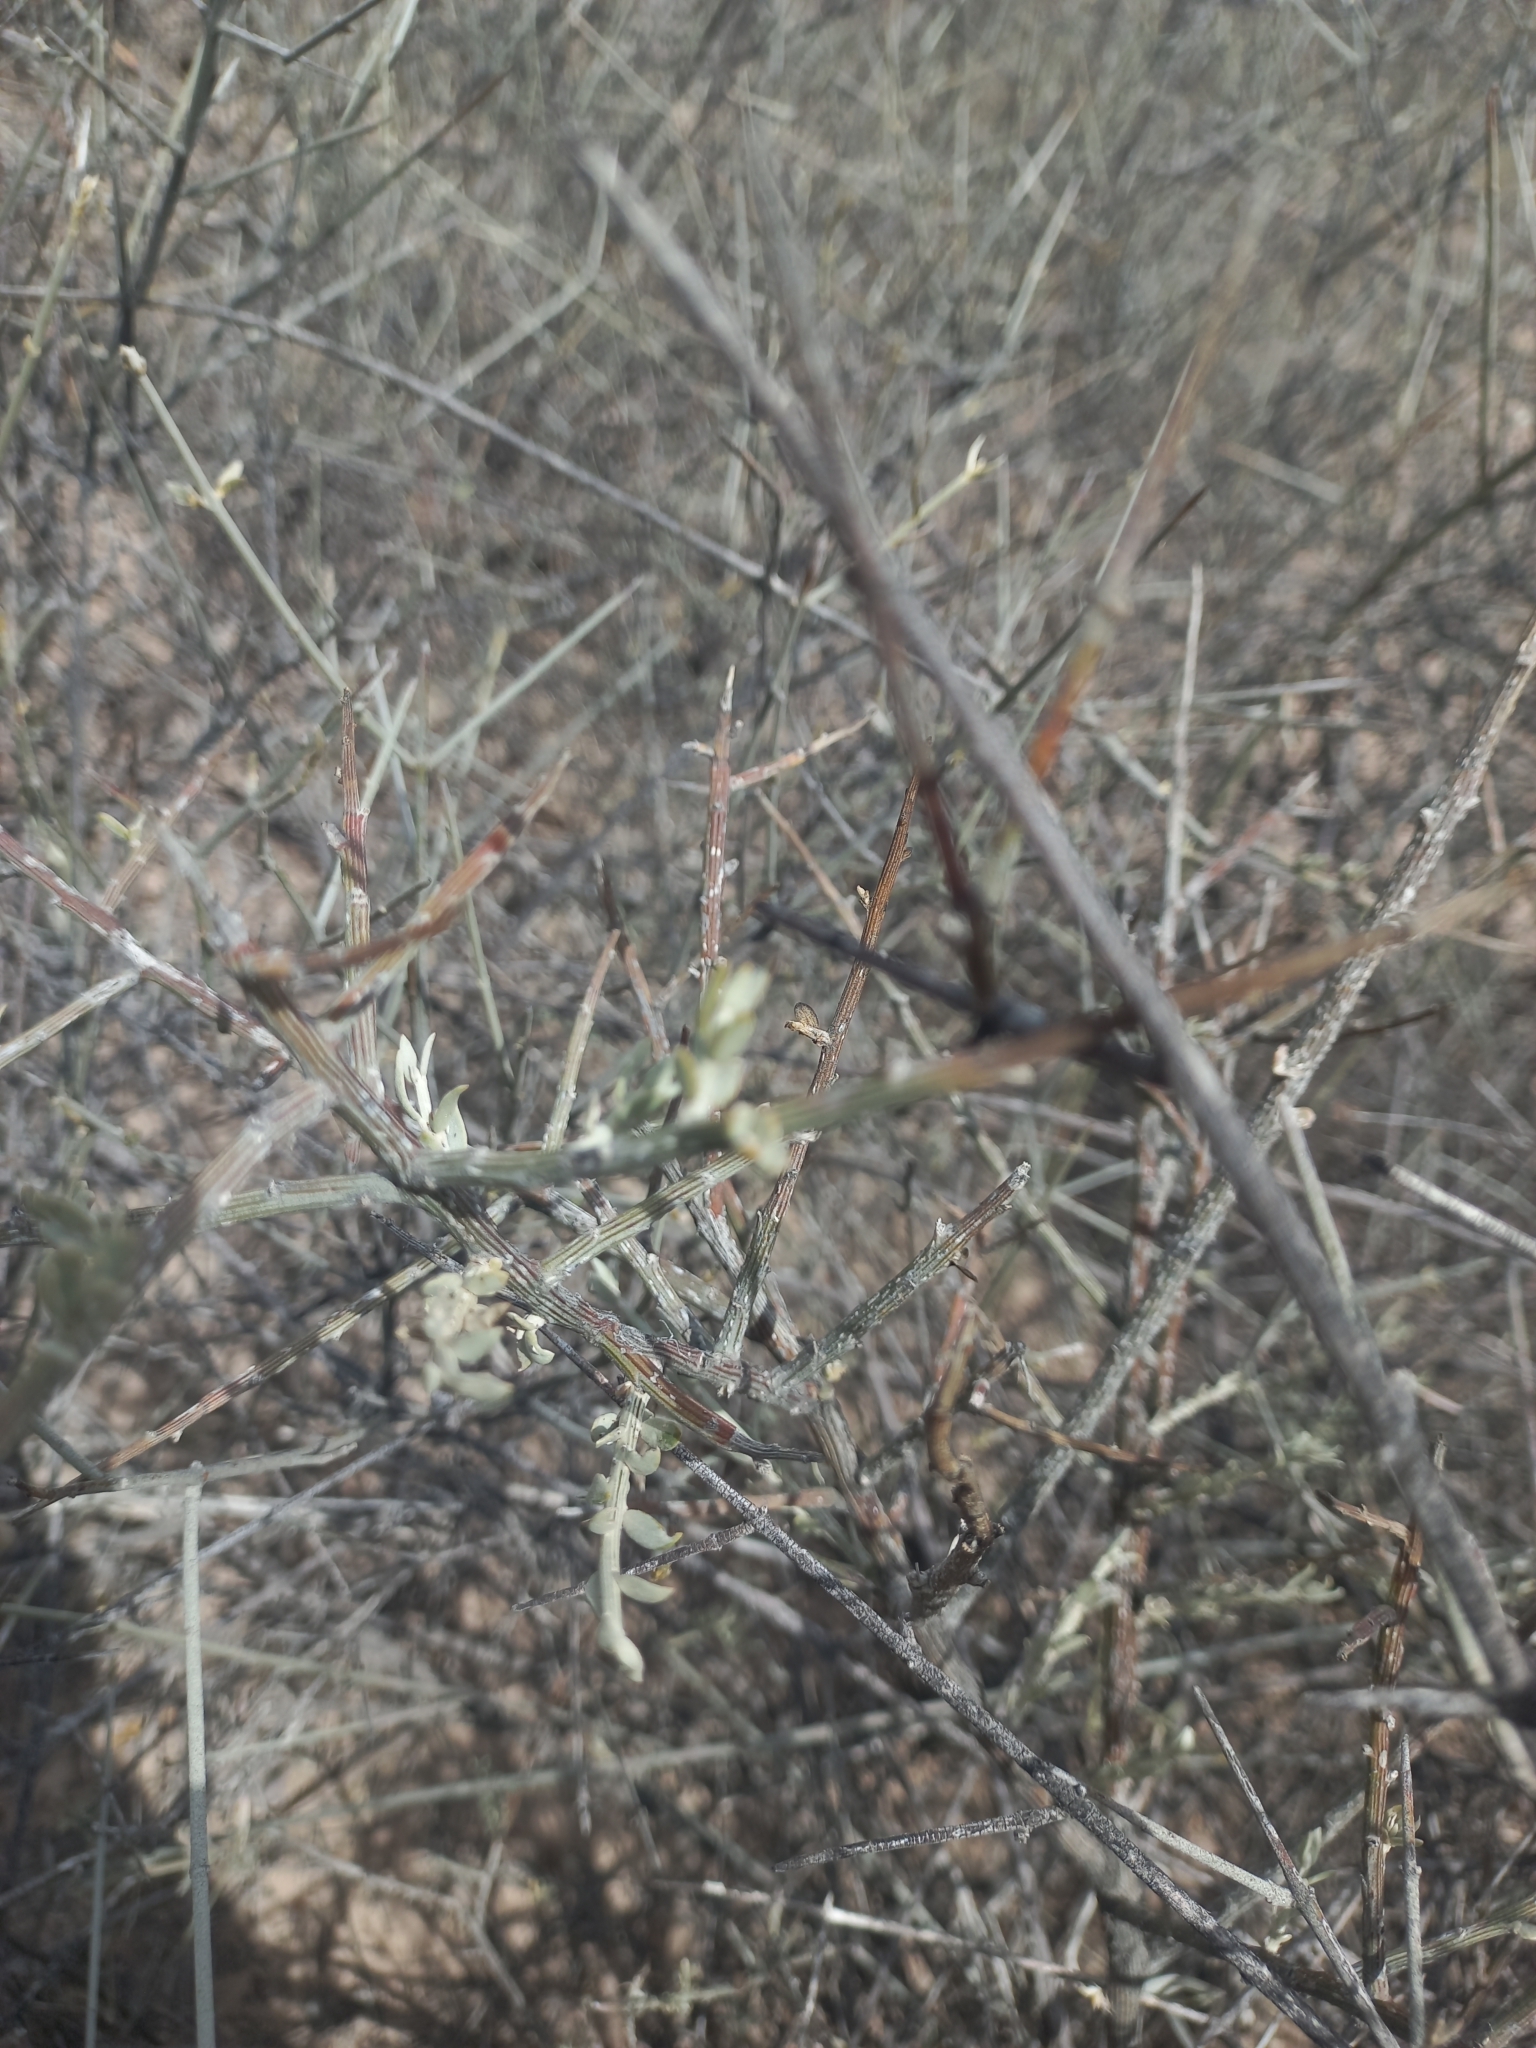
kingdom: Plantae
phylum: Tracheophyta
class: Magnoliopsida
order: Asterales
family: Asteraceae
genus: Cyclolepis
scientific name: Cyclolepis genistoides
